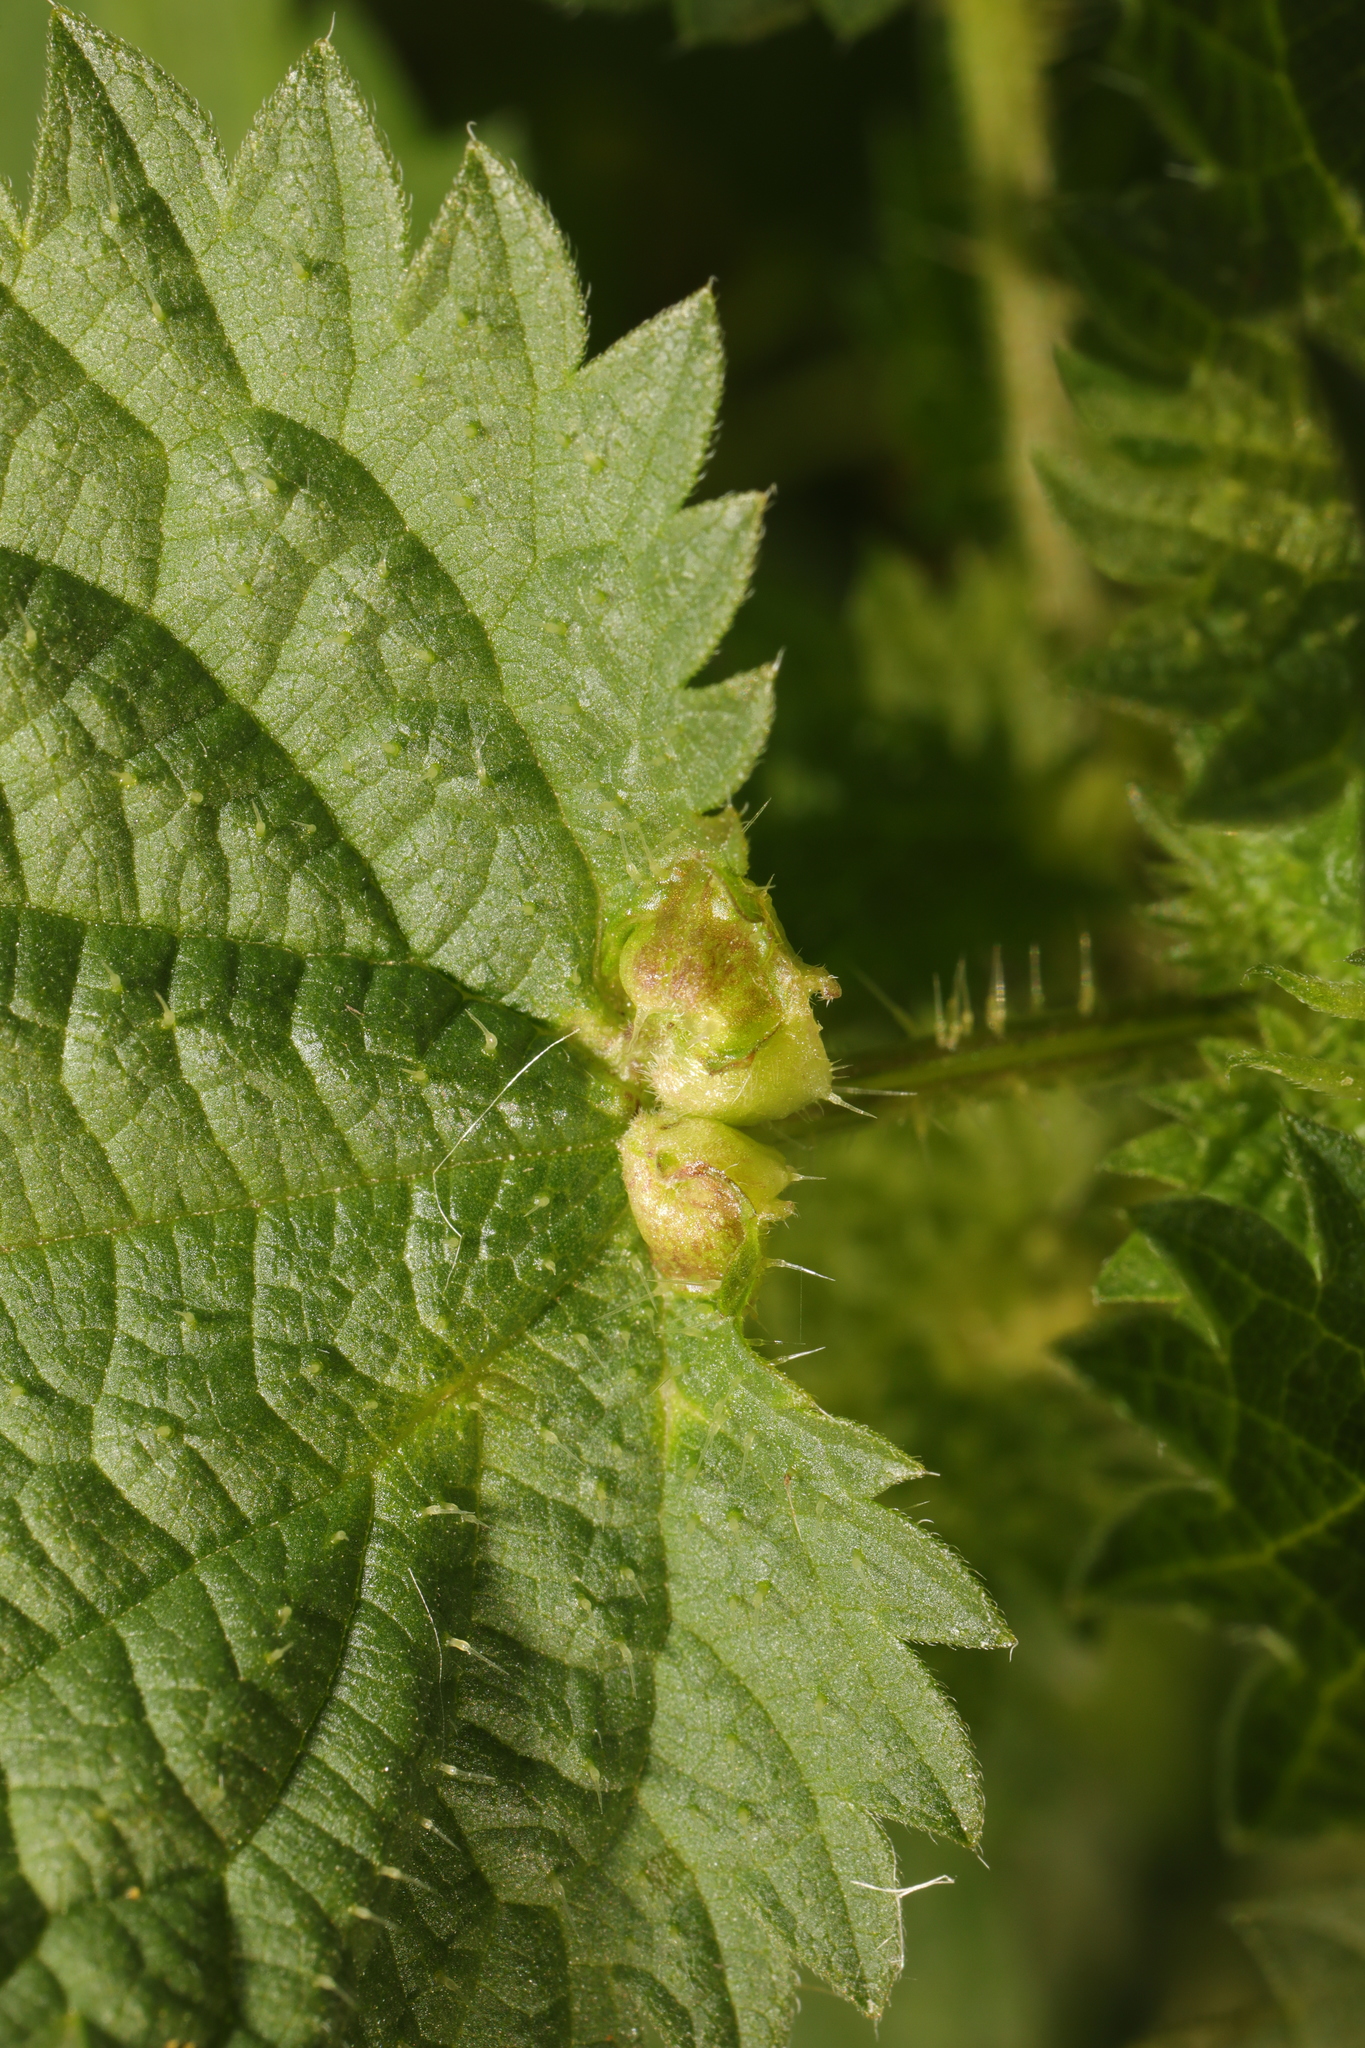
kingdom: Animalia
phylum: Arthropoda
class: Insecta
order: Diptera
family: Cecidomyiidae
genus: Dasineura
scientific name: Dasineura urticae
